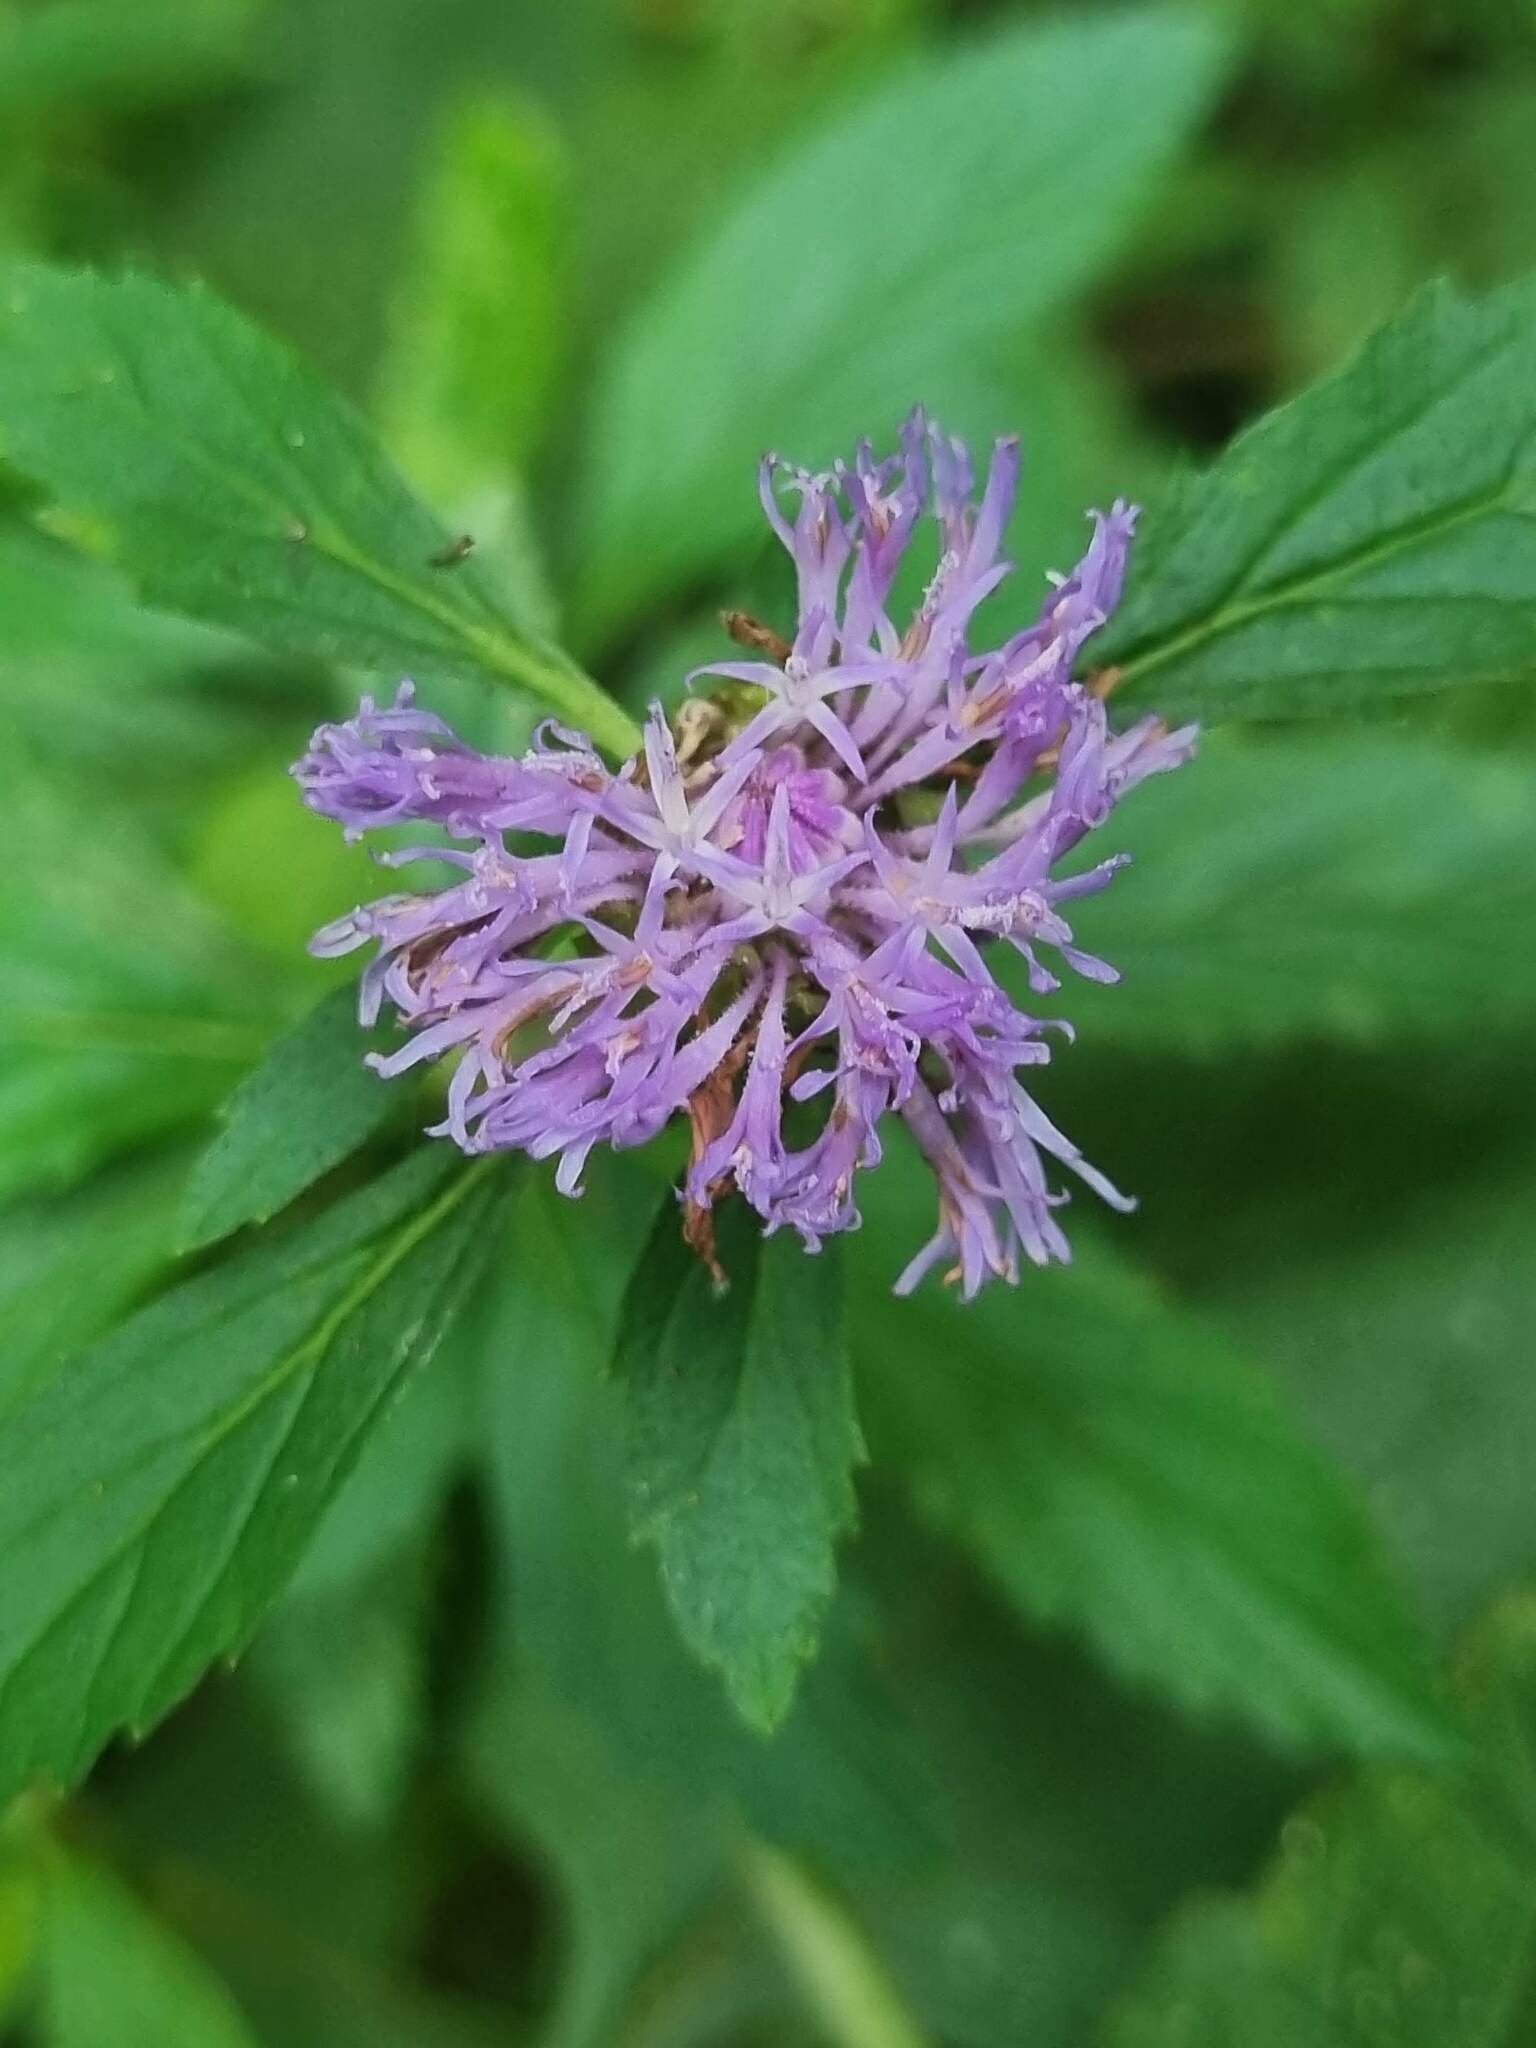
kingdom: Plantae
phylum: Tracheophyta
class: Magnoliopsida
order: Asterales
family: Asteraceae
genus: Centratherum
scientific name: Centratherum punctatum
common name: Larkdaisy
